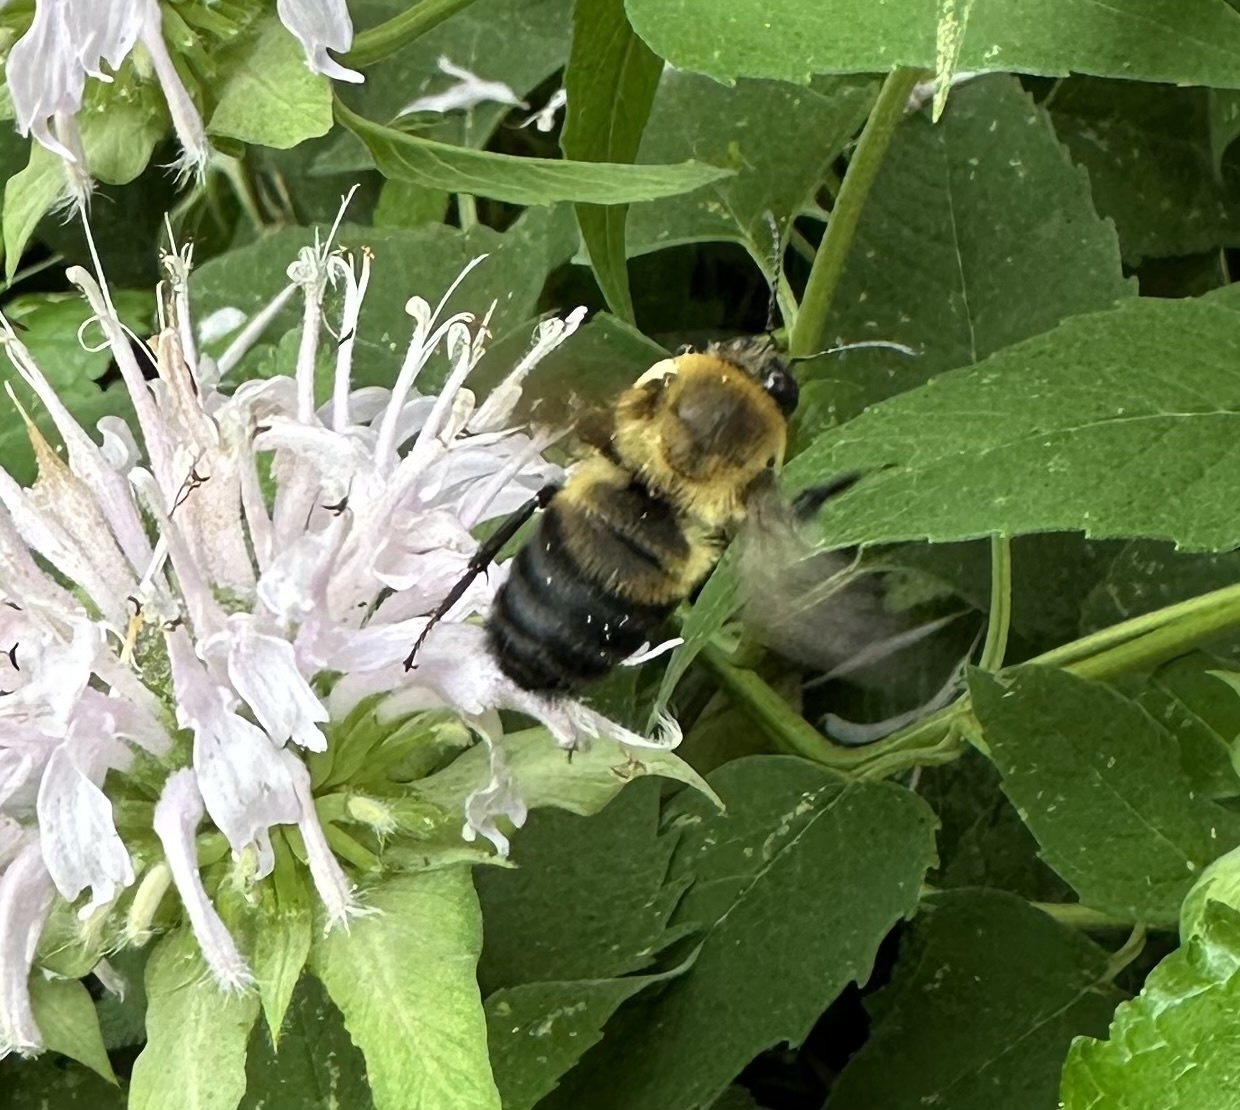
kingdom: Animalia
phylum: Arthropoda
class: Insecta
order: Hymenoptera
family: Apidae
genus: Bombus
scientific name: Bombus griseocollis
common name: Brown-belted bumble bee
